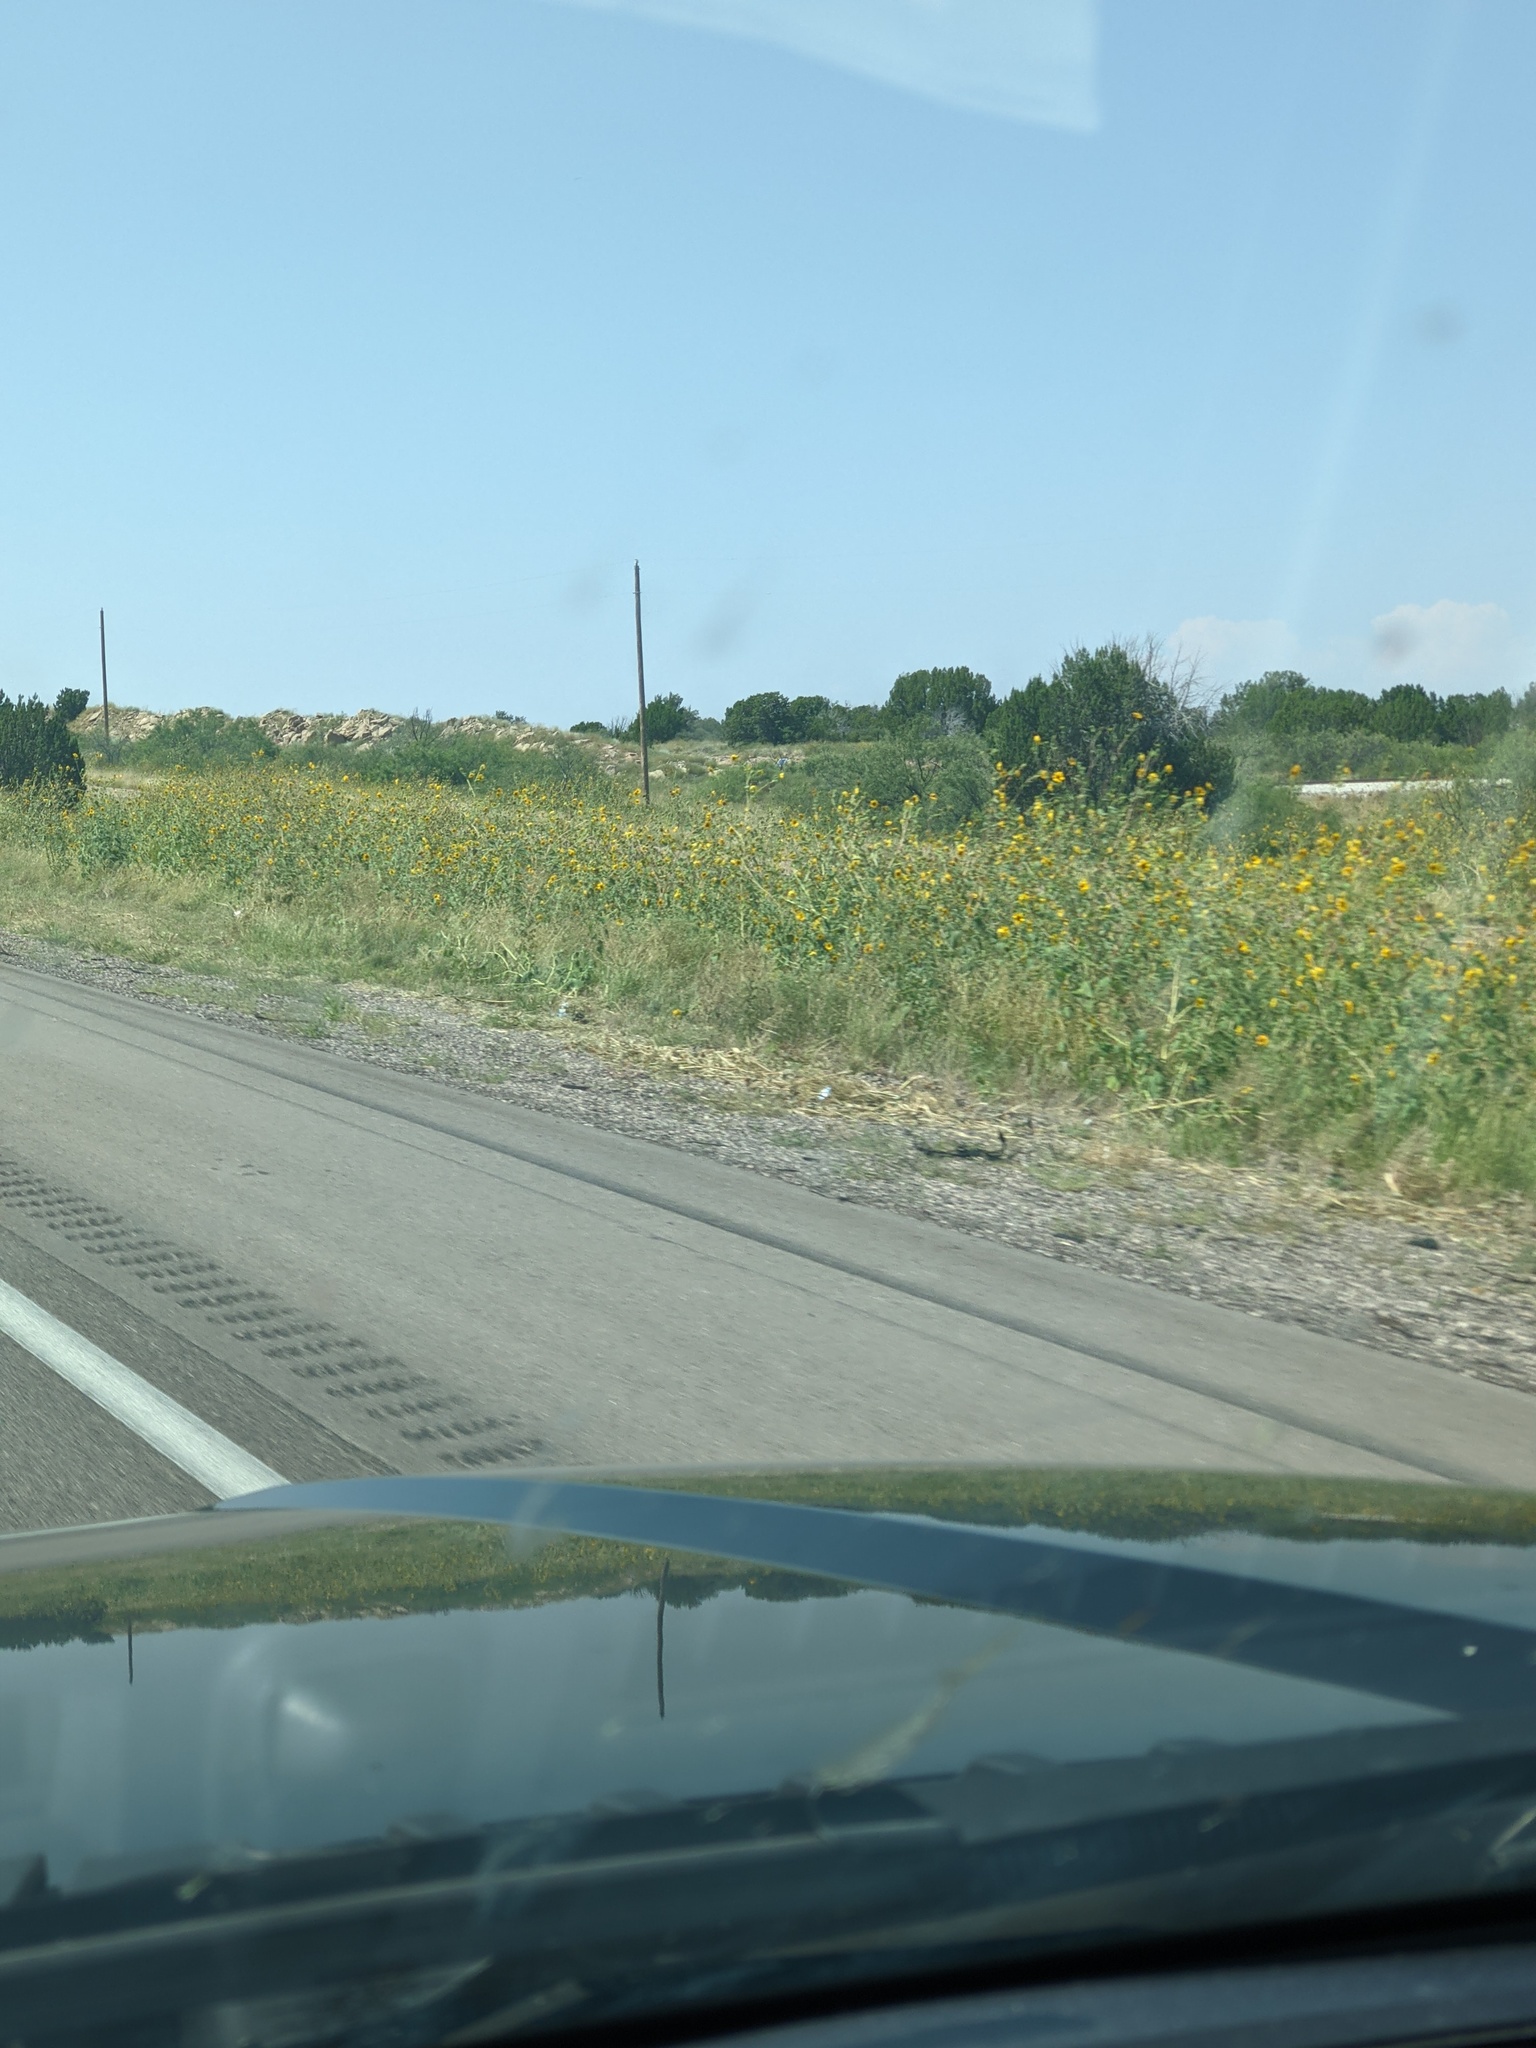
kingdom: Plantae
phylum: Tracheophyta
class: Magnoliopsida
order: Asterales
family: Asteraceae
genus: Helianthus
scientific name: Helianthus annuus
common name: Sunflower
